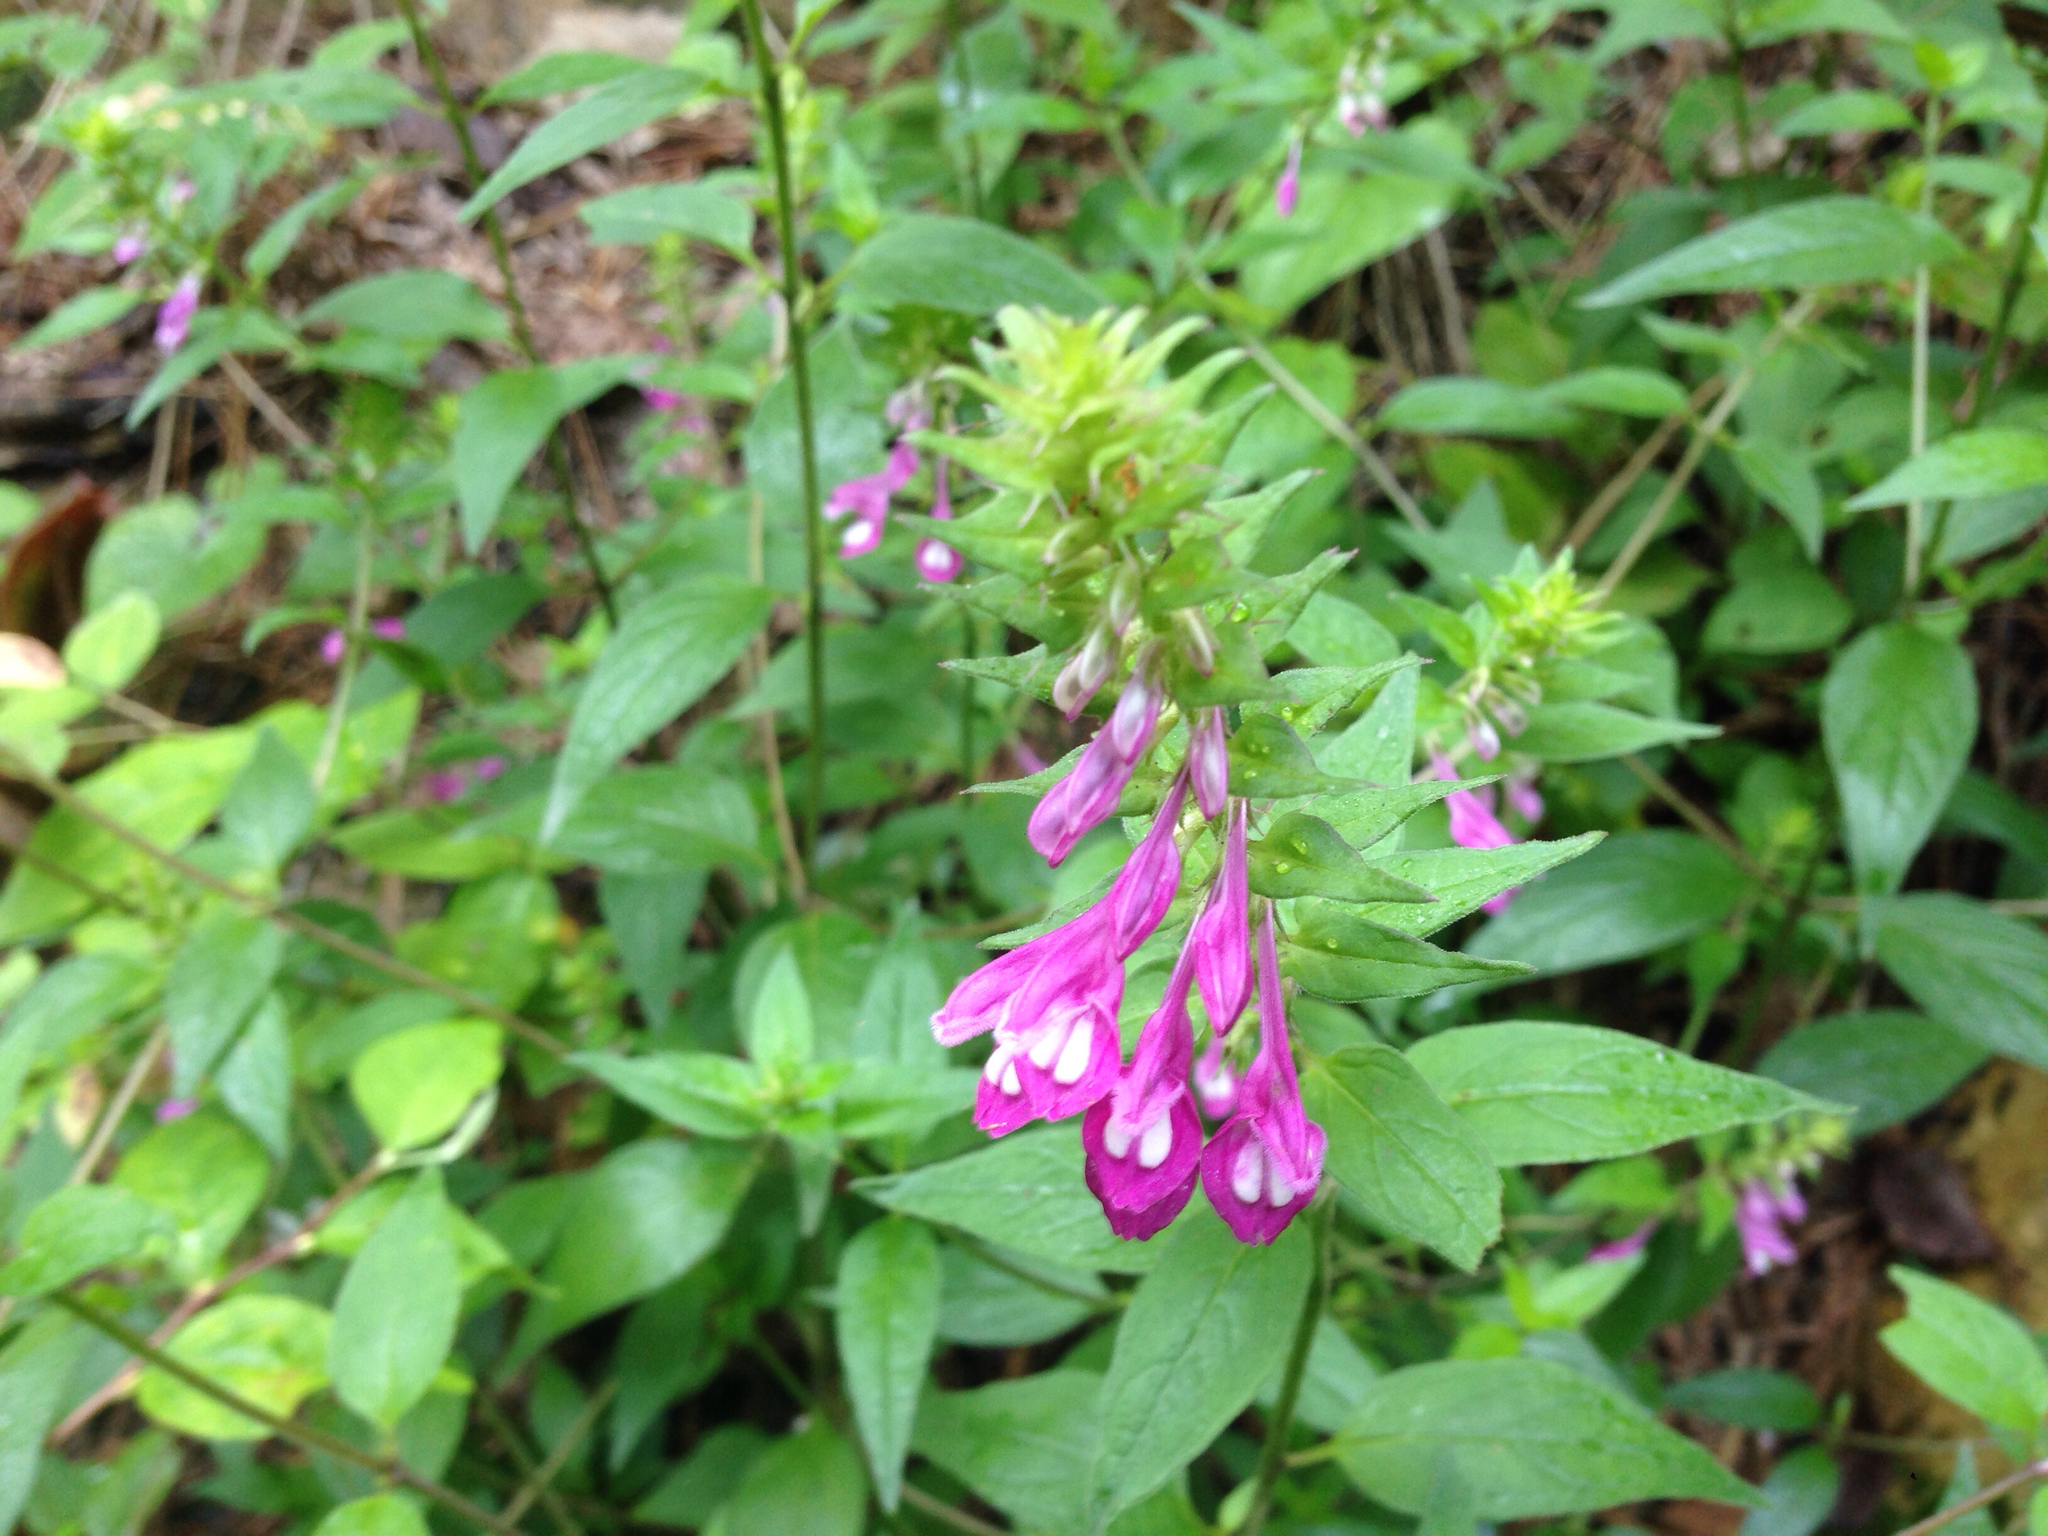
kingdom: Plantae
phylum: Tracheophyta
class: Magnoliopsida
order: Lamiales
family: Orobanchaceae
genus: Melampyrum
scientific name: Melampyrum roseum
